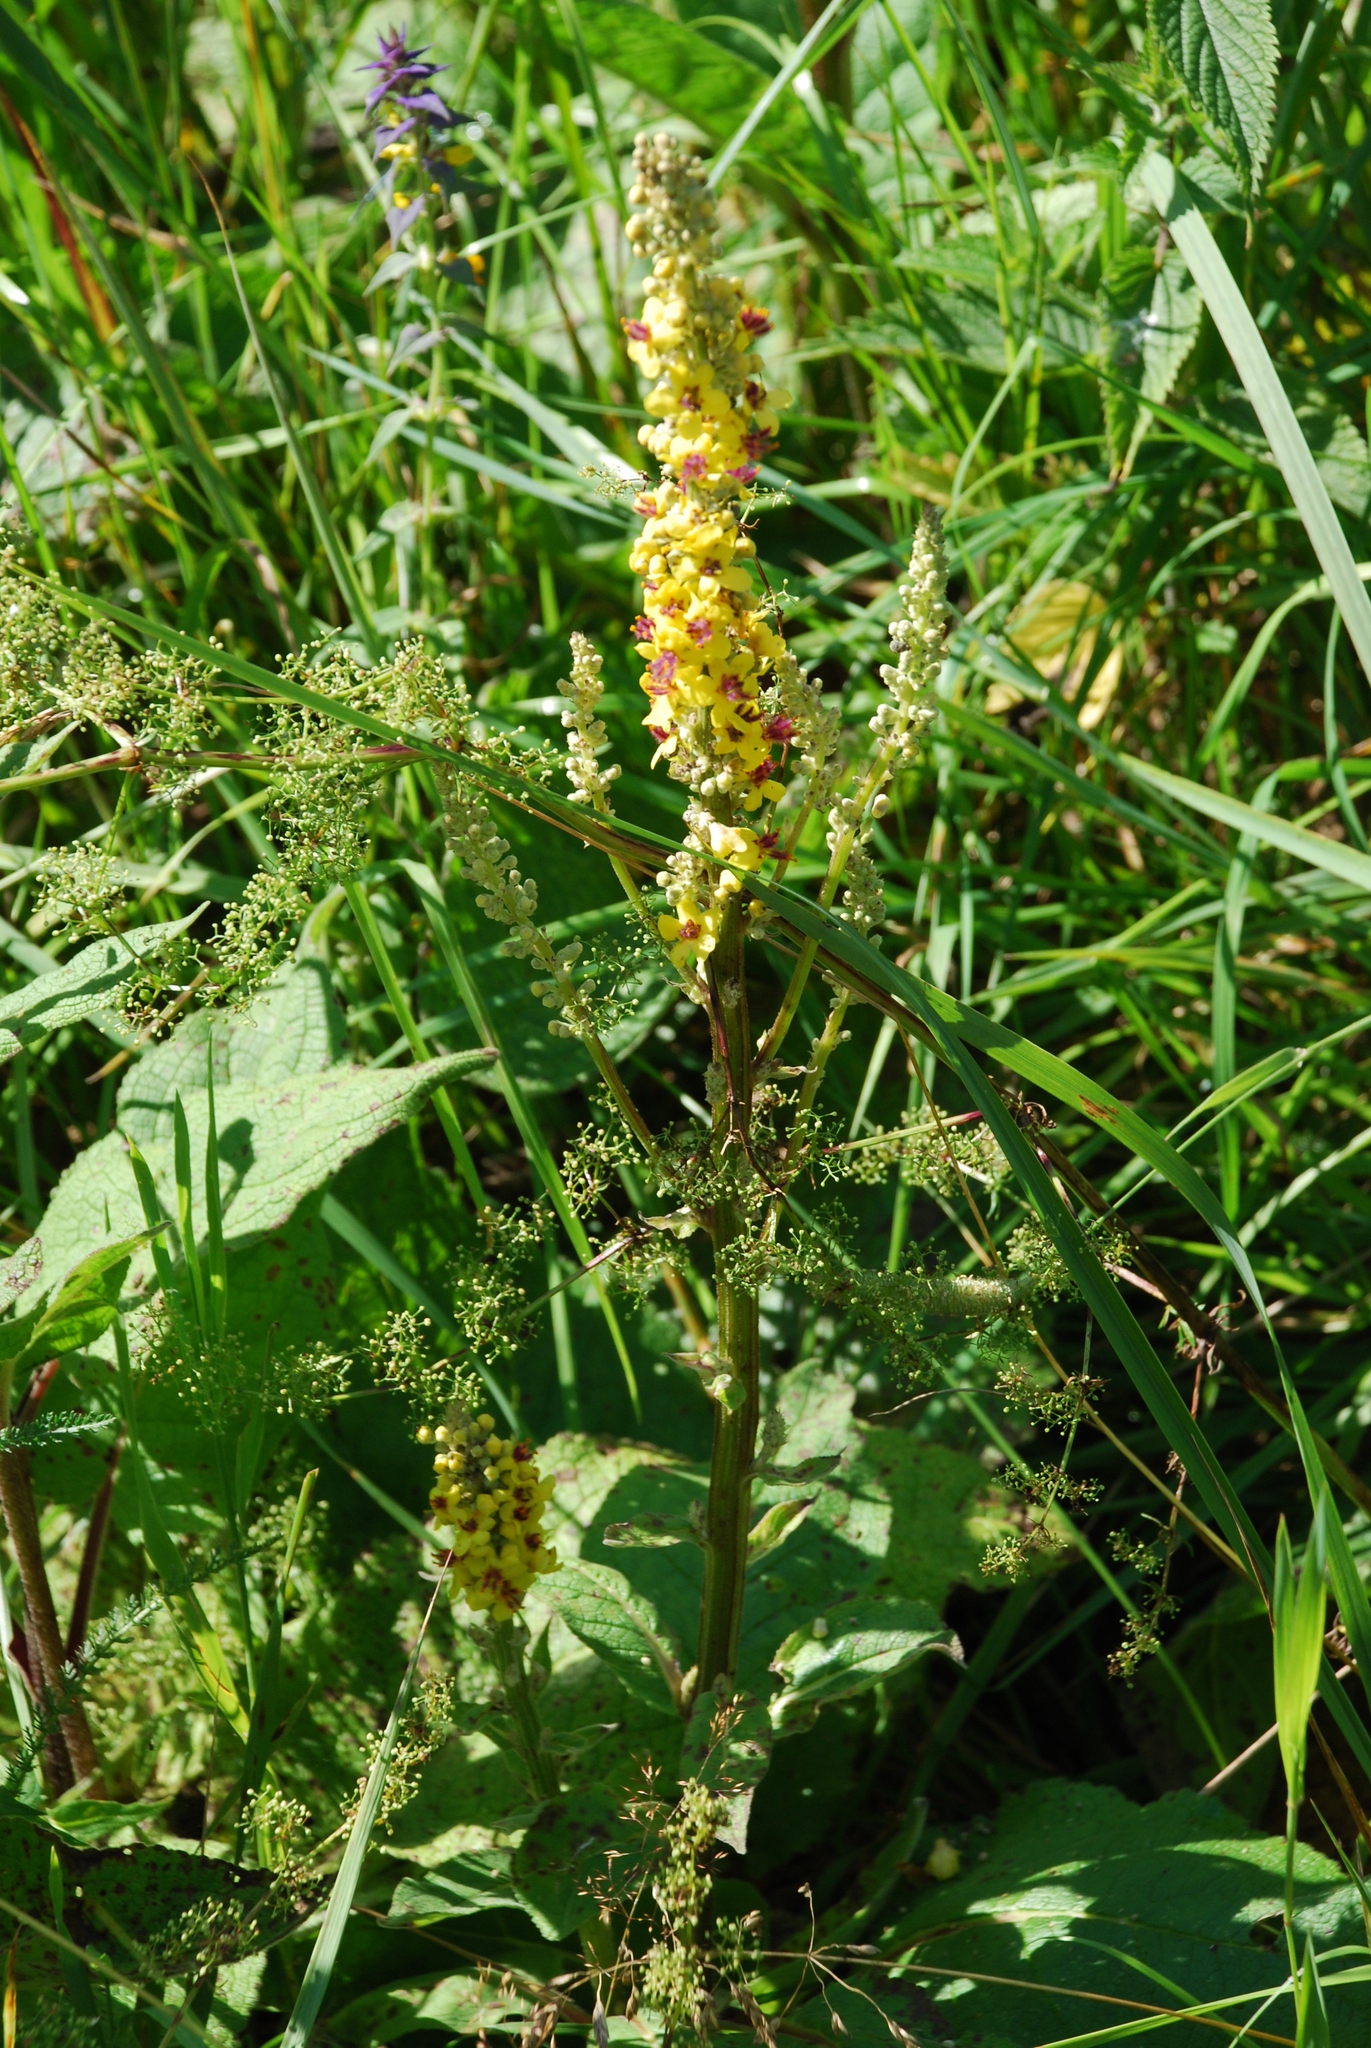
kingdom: Plantae
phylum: Tracheophyta
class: Magnoliopsida
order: Lamiales
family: Scrophulariaceae
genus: Verbascum
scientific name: Verbascum nigrum
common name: Dark mullein
